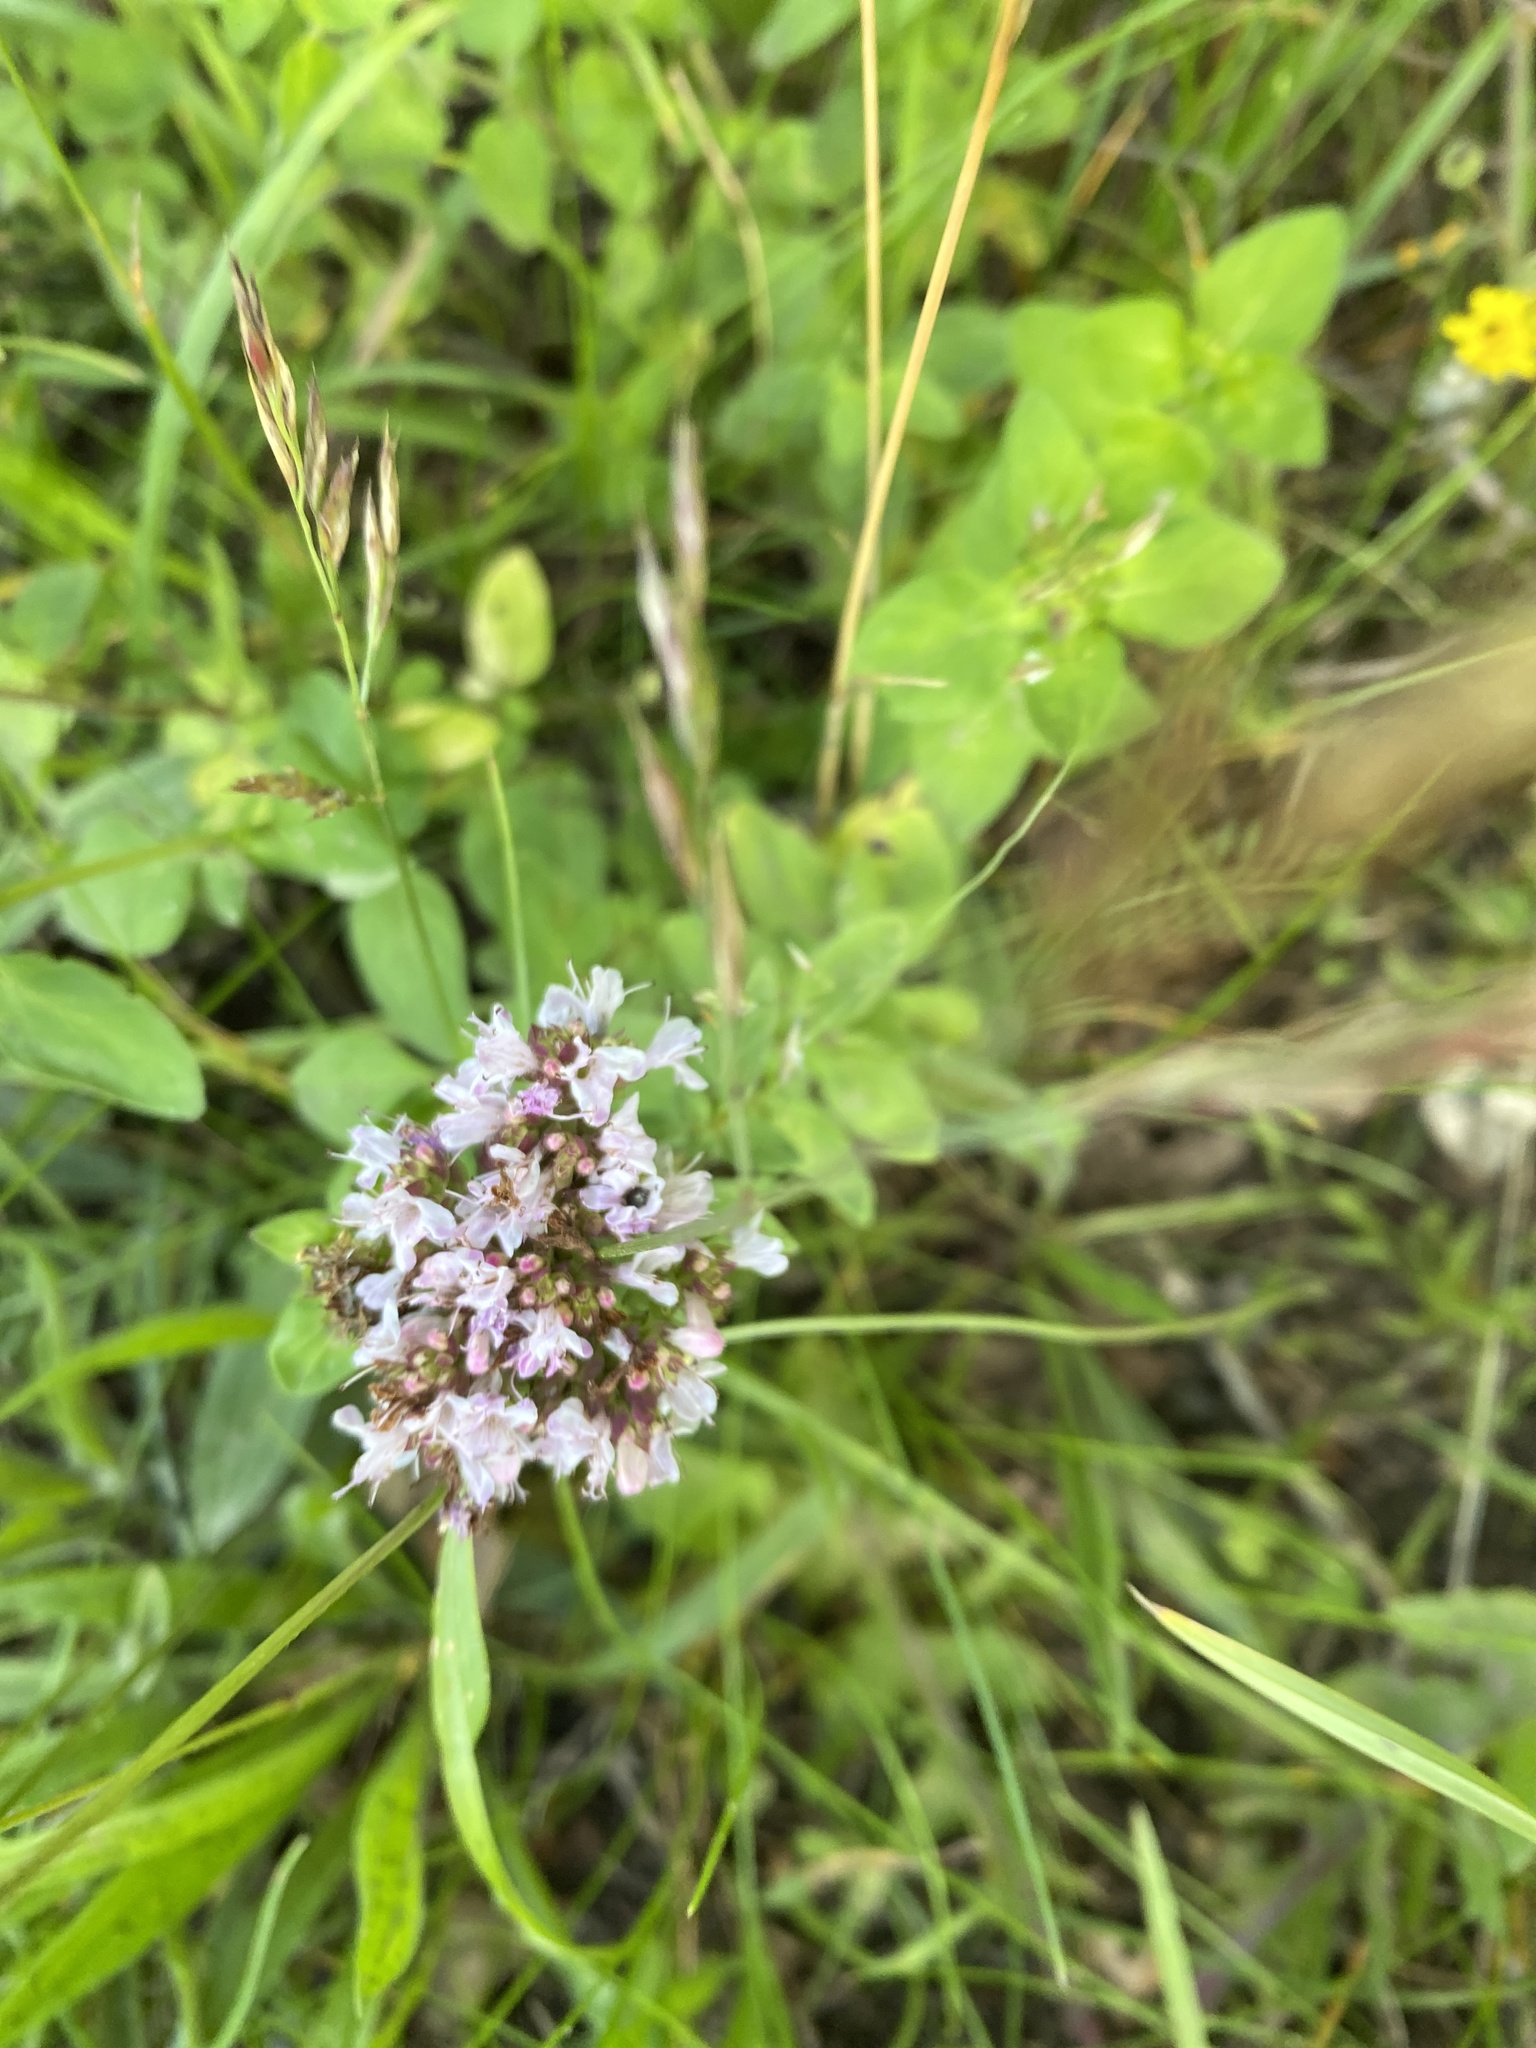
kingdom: Plantae
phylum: Tracheophyta
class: Magnoliopsida
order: Lamiales
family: Lamiaceae
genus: Origanum
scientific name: Origanum vulgare
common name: Wild marjoram
